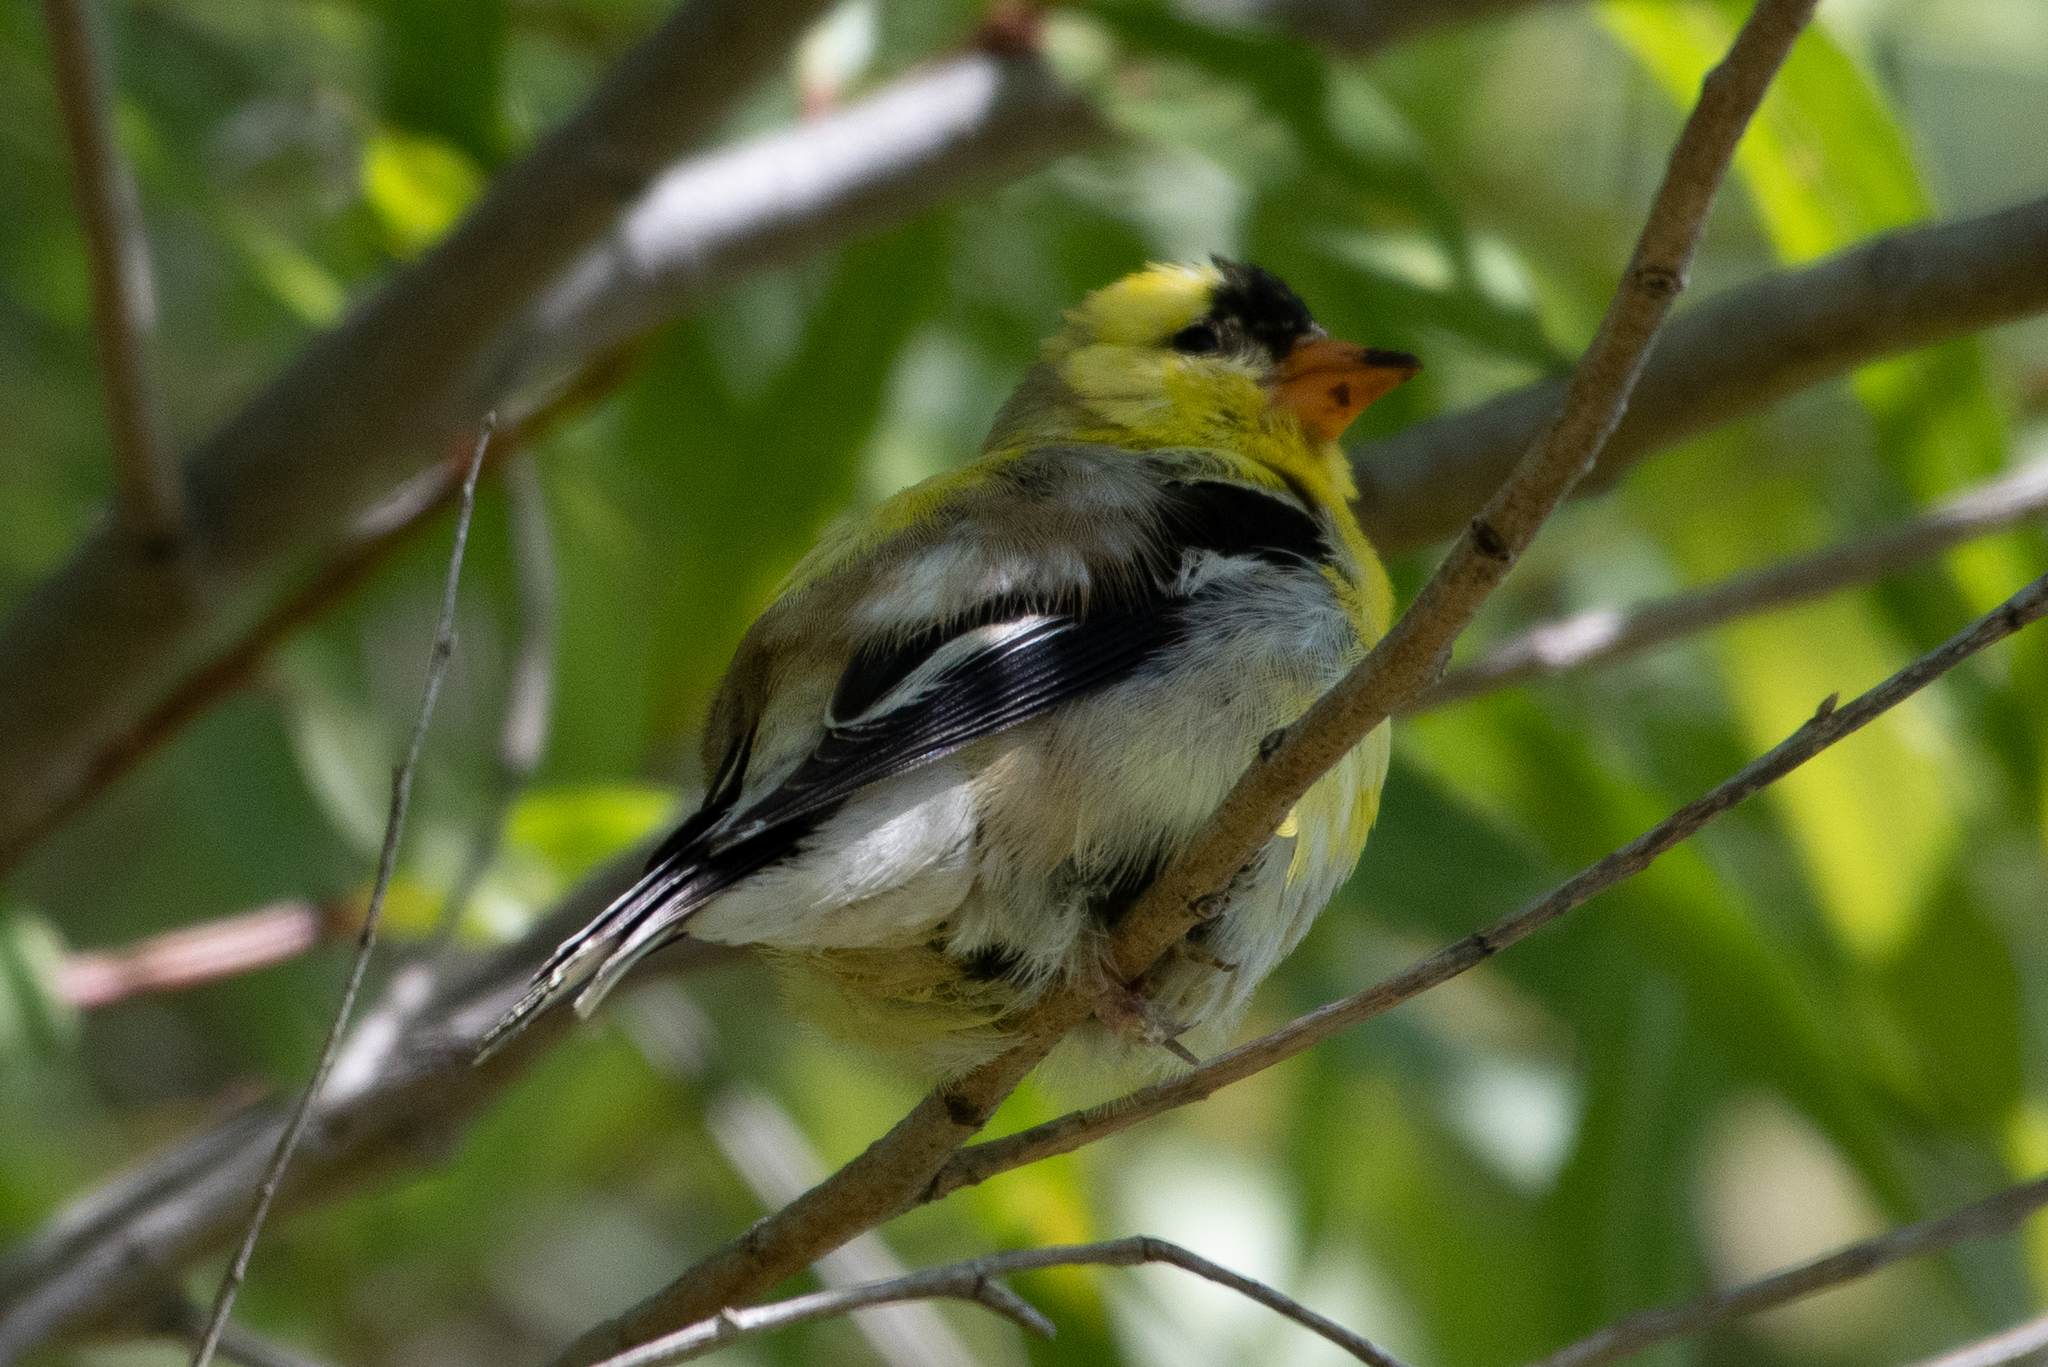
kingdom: Animalia
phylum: Chordata
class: Aves
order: Passeriformes
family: Fringillidae
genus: Spinus
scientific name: Spinus tristis
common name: American goldfinch
